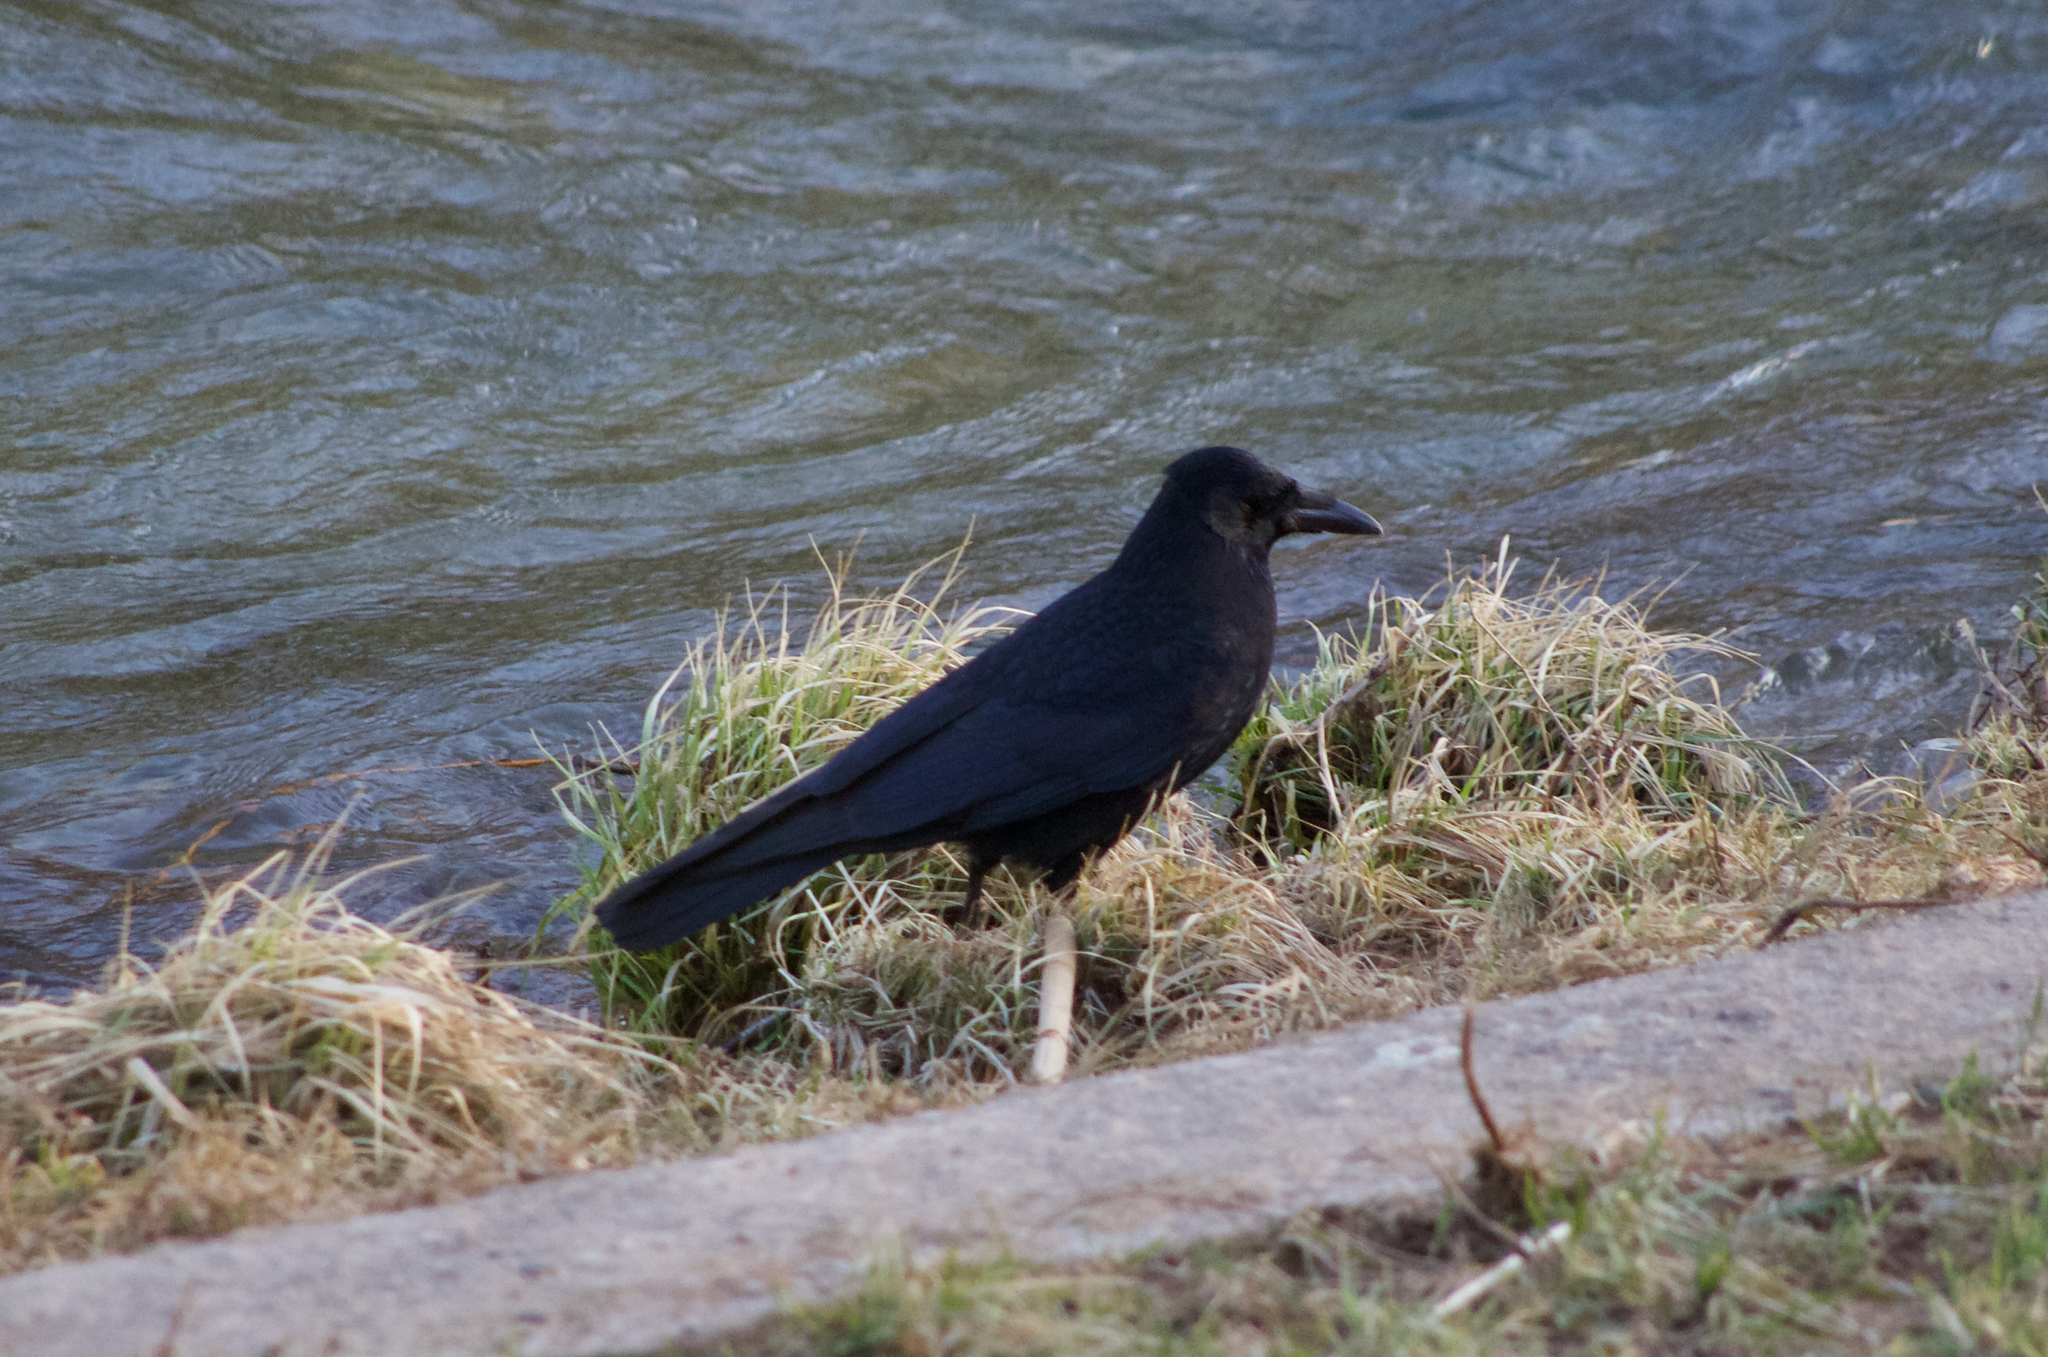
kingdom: Animalia
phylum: Chordata
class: Aves
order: Passeriformes
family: Corvidae
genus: Corvus
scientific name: Corvus corone
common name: Carrion crow
